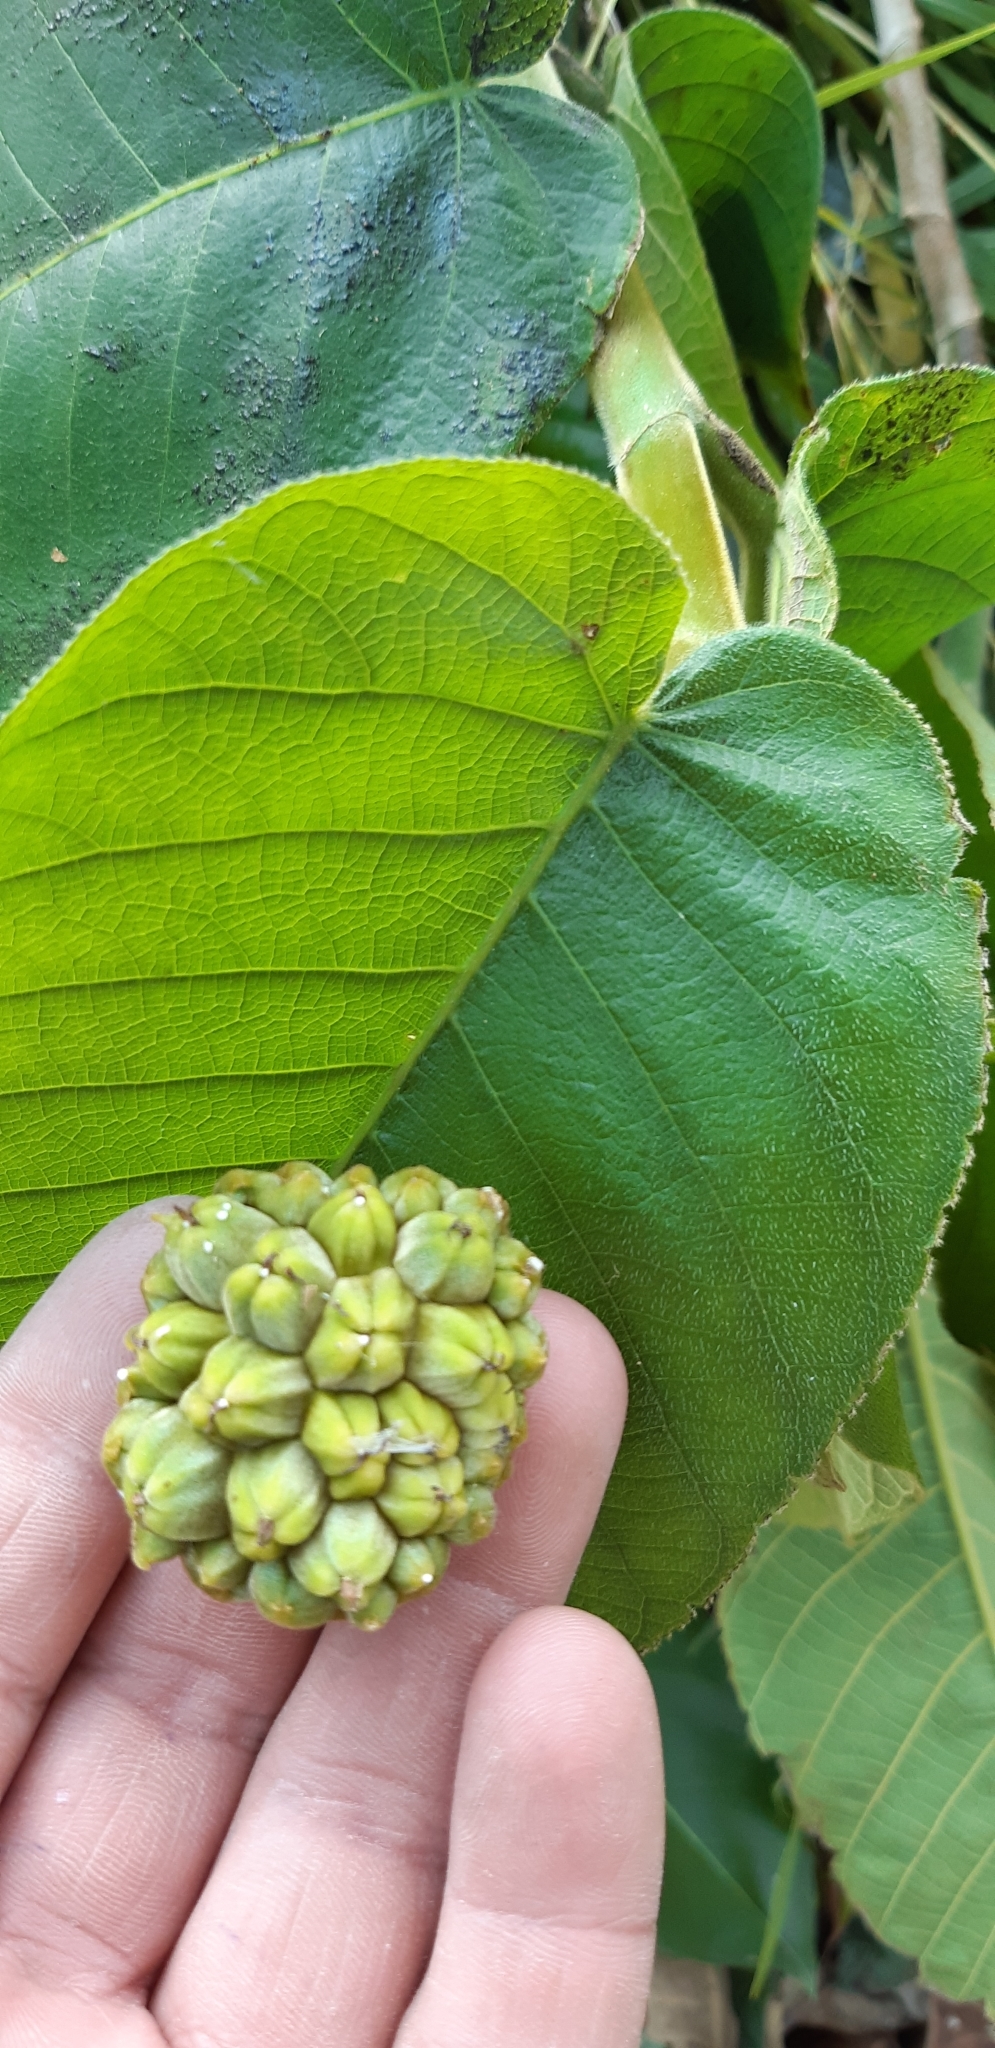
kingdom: Plantae
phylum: Tracheophyta
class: Magnoliopsida
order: Rosales
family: Moraceae
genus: Castilla
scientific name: Castilla elastica
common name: Castilla rubber
